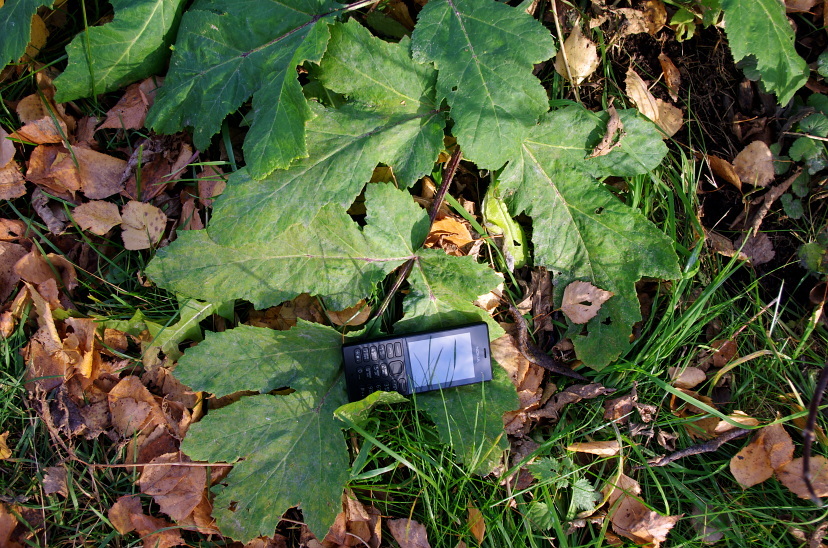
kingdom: Plantae
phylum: Tracheophyta
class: Magnoliopsida
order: Apiales
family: Apiaceae
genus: Heracleum
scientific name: Heracleum sosnowskyi
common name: Sosnowsky's hogweed
